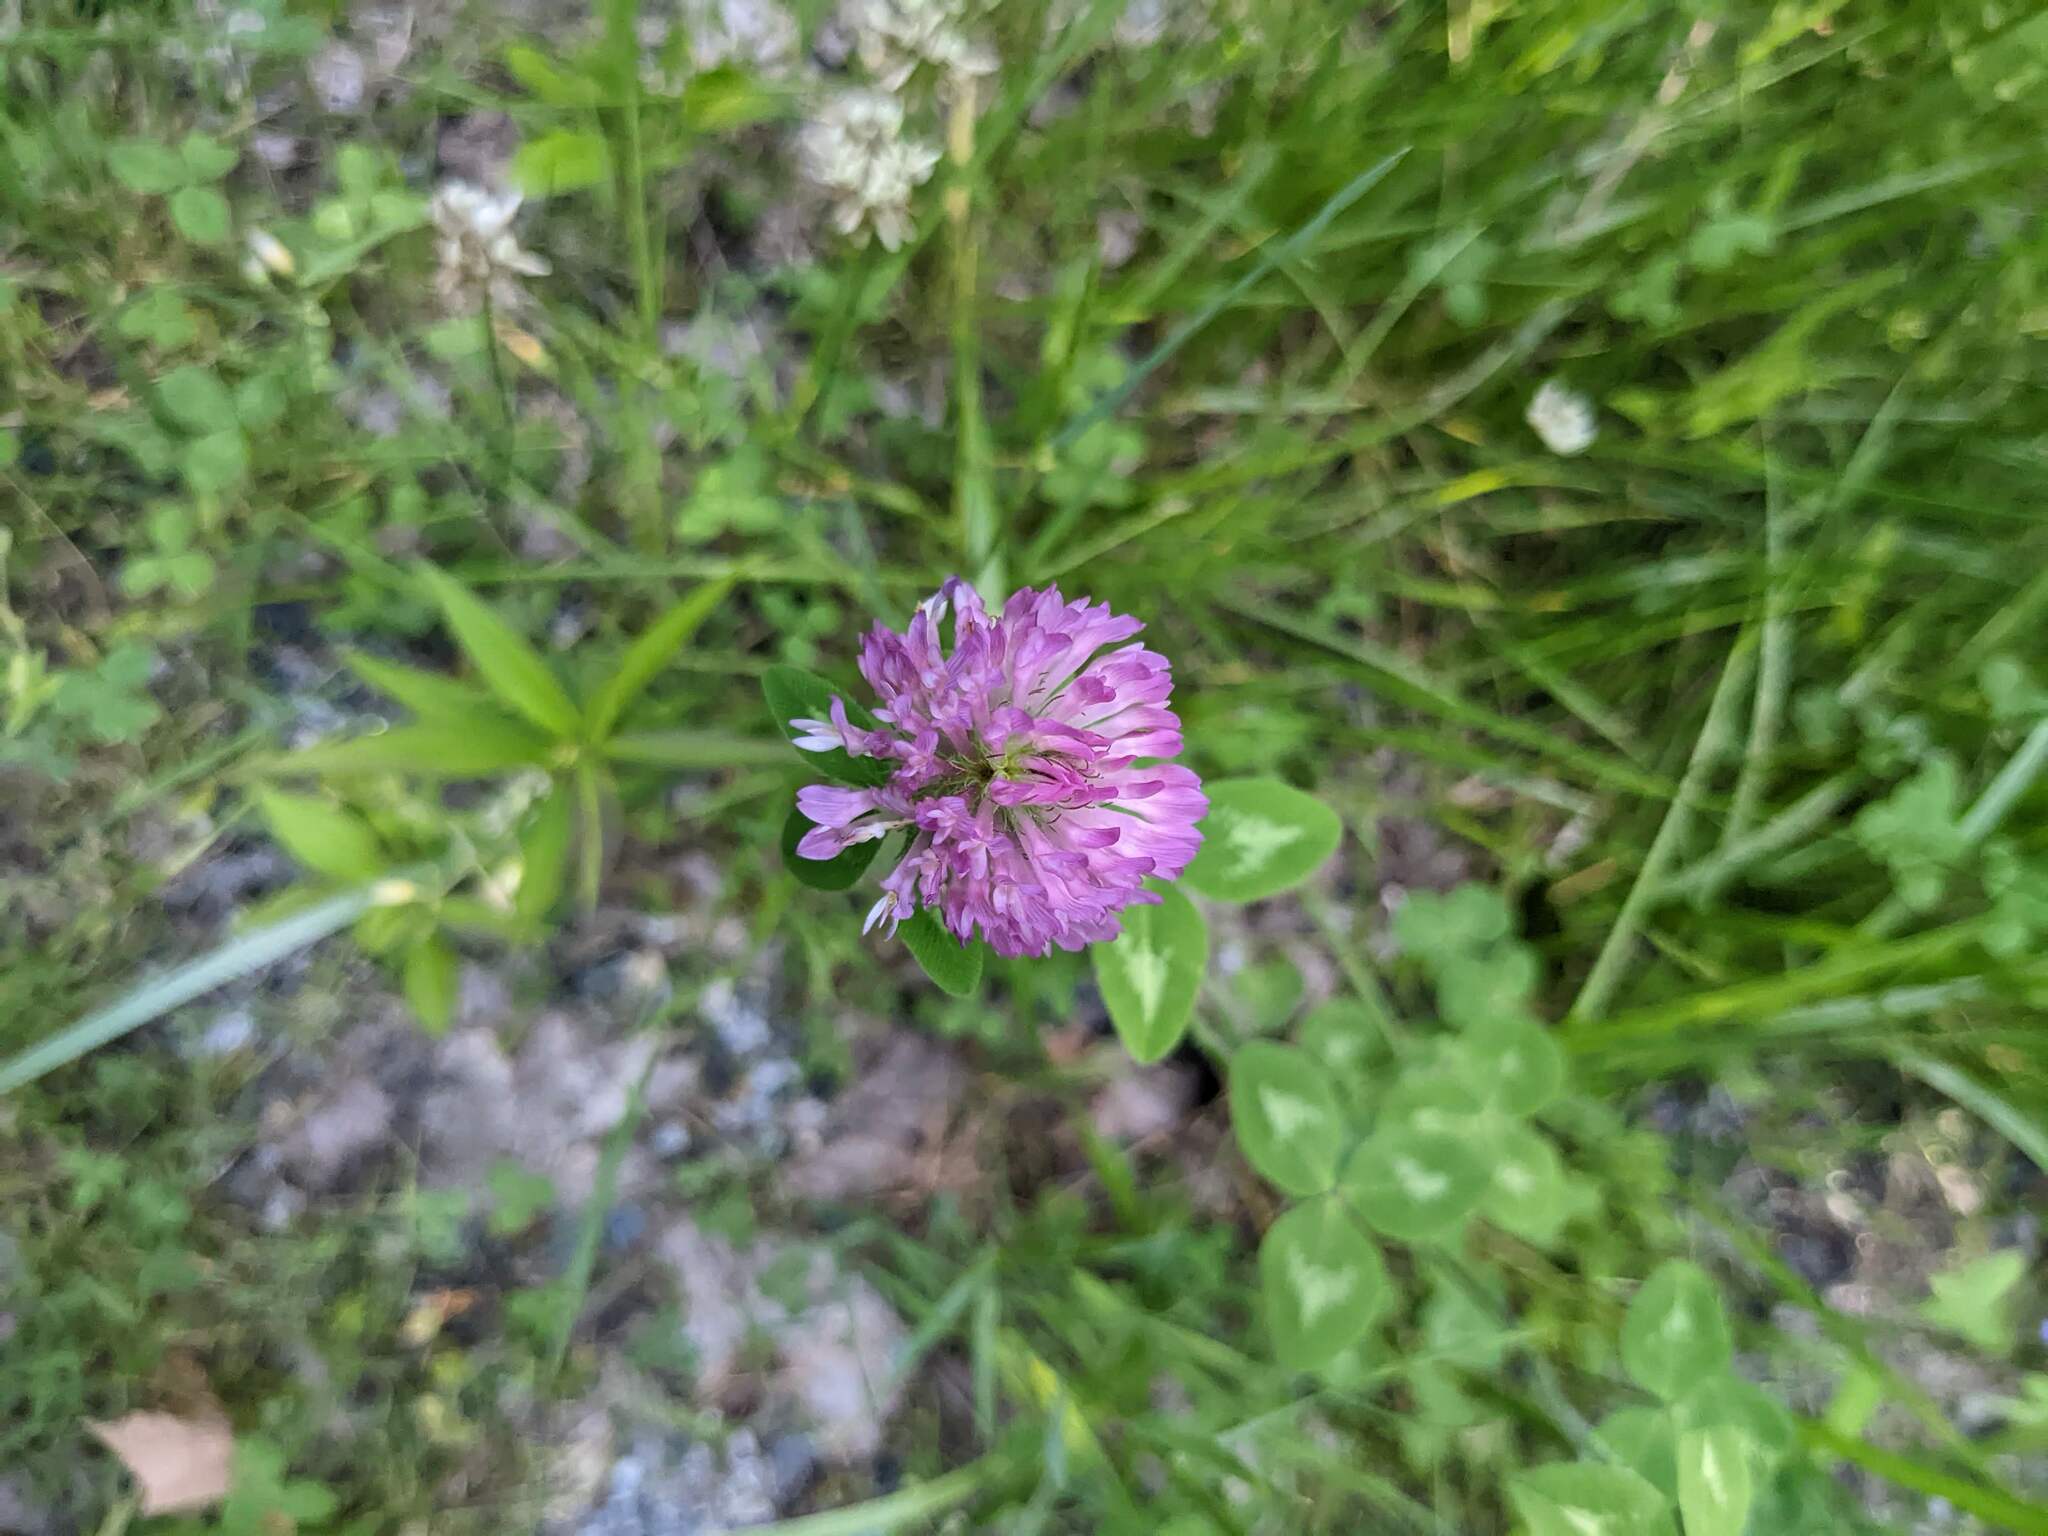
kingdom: Plantae
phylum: Tracheophyta
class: Magnoliopsida
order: Fabales
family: Fabaceae
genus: Trifolium
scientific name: Trifolium pratense
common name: Red clover
